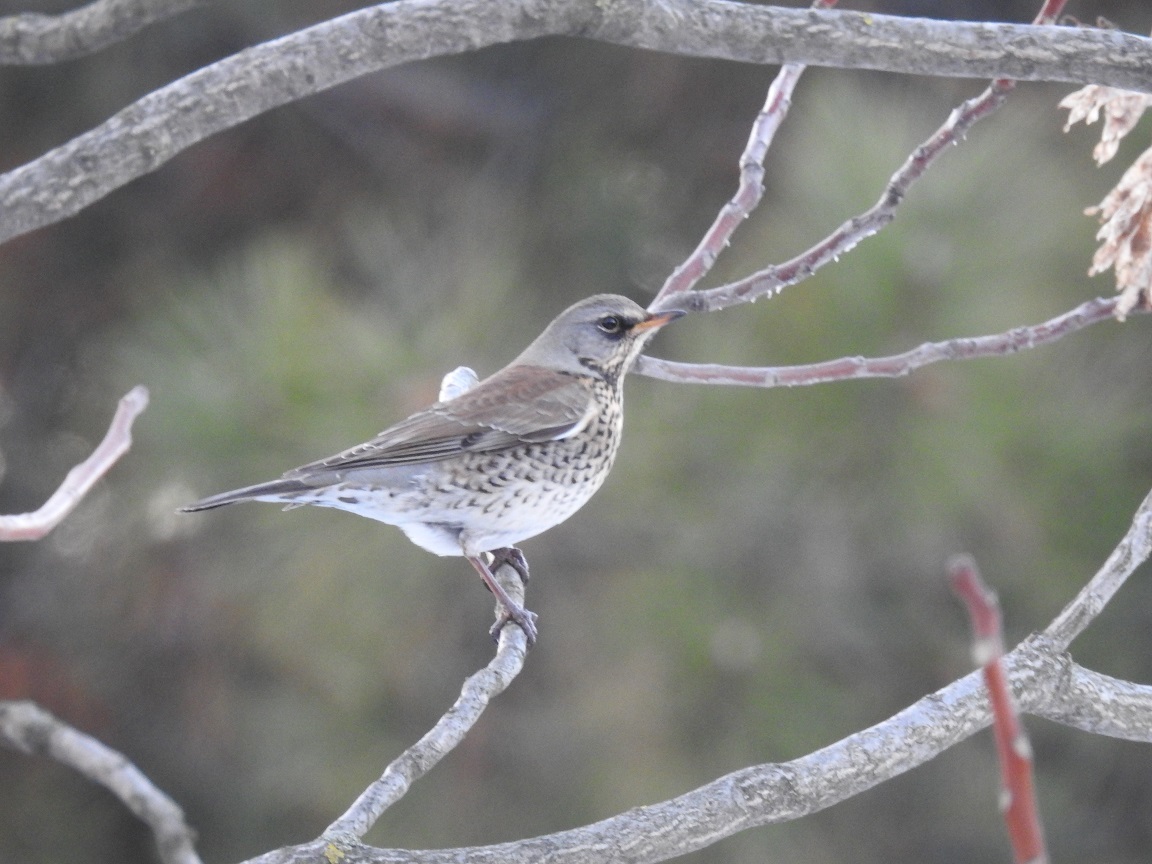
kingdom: Animalia
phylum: Chordata
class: Aves
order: Passeriformes
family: Turdidae
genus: Turdus
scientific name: Turdus pilaris
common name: Fieldfare
